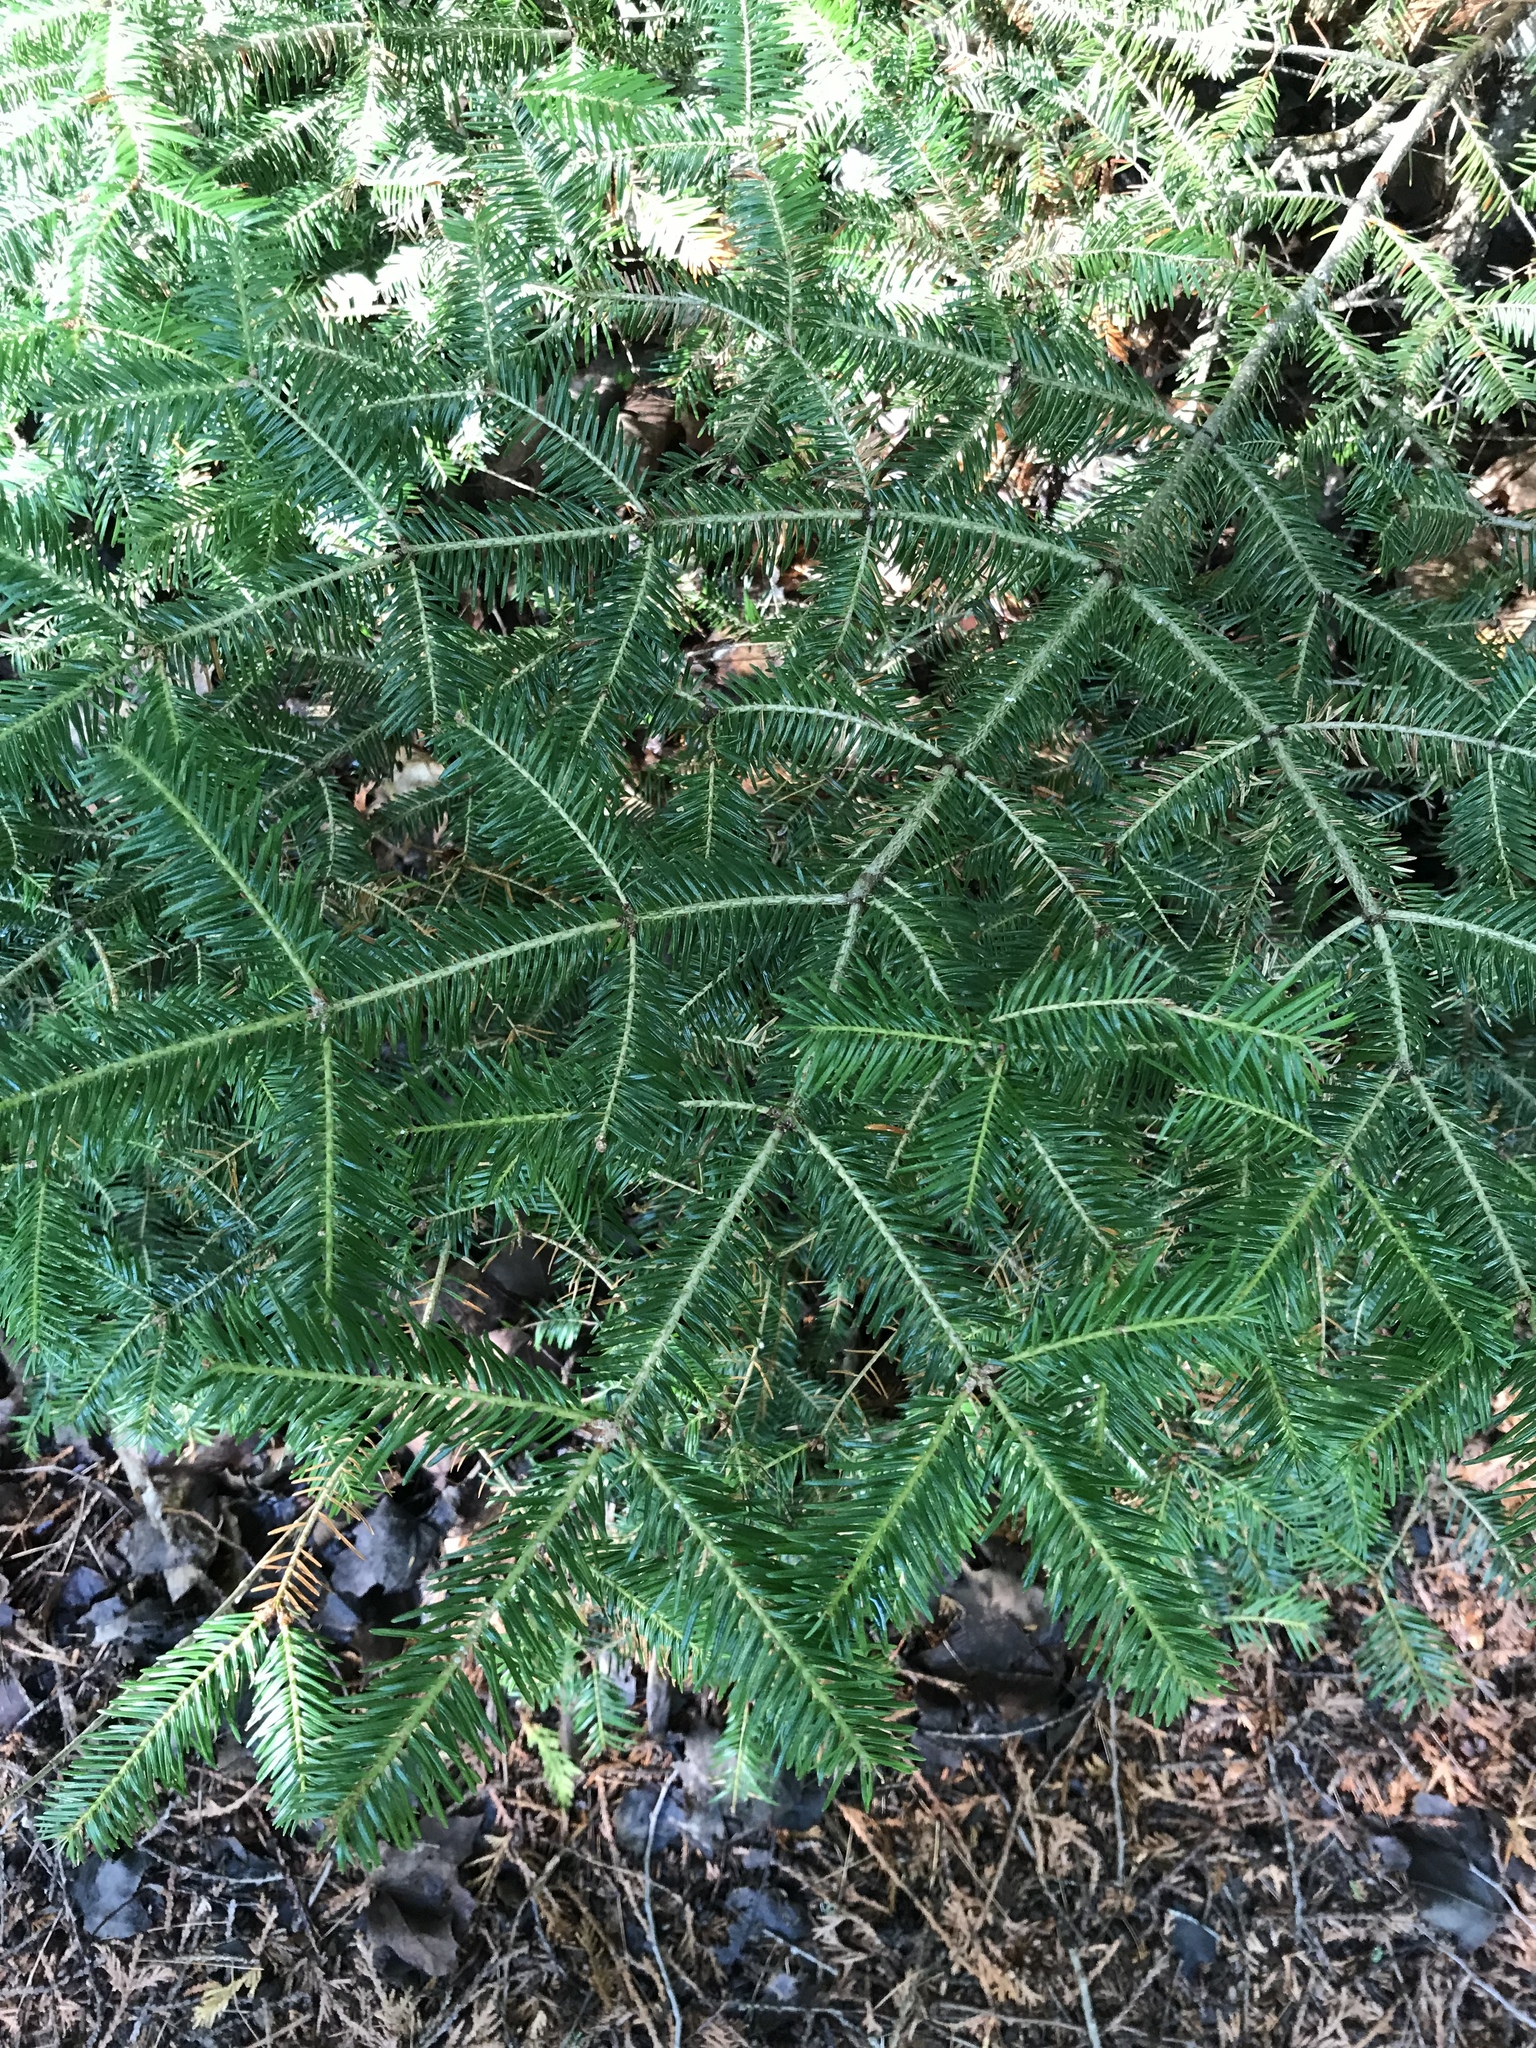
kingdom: Plantae
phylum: Tracheophyta
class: Pinopsida
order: Pinales
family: Pinaceae
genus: Abies
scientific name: Abies balsamea
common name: Balsam fir
